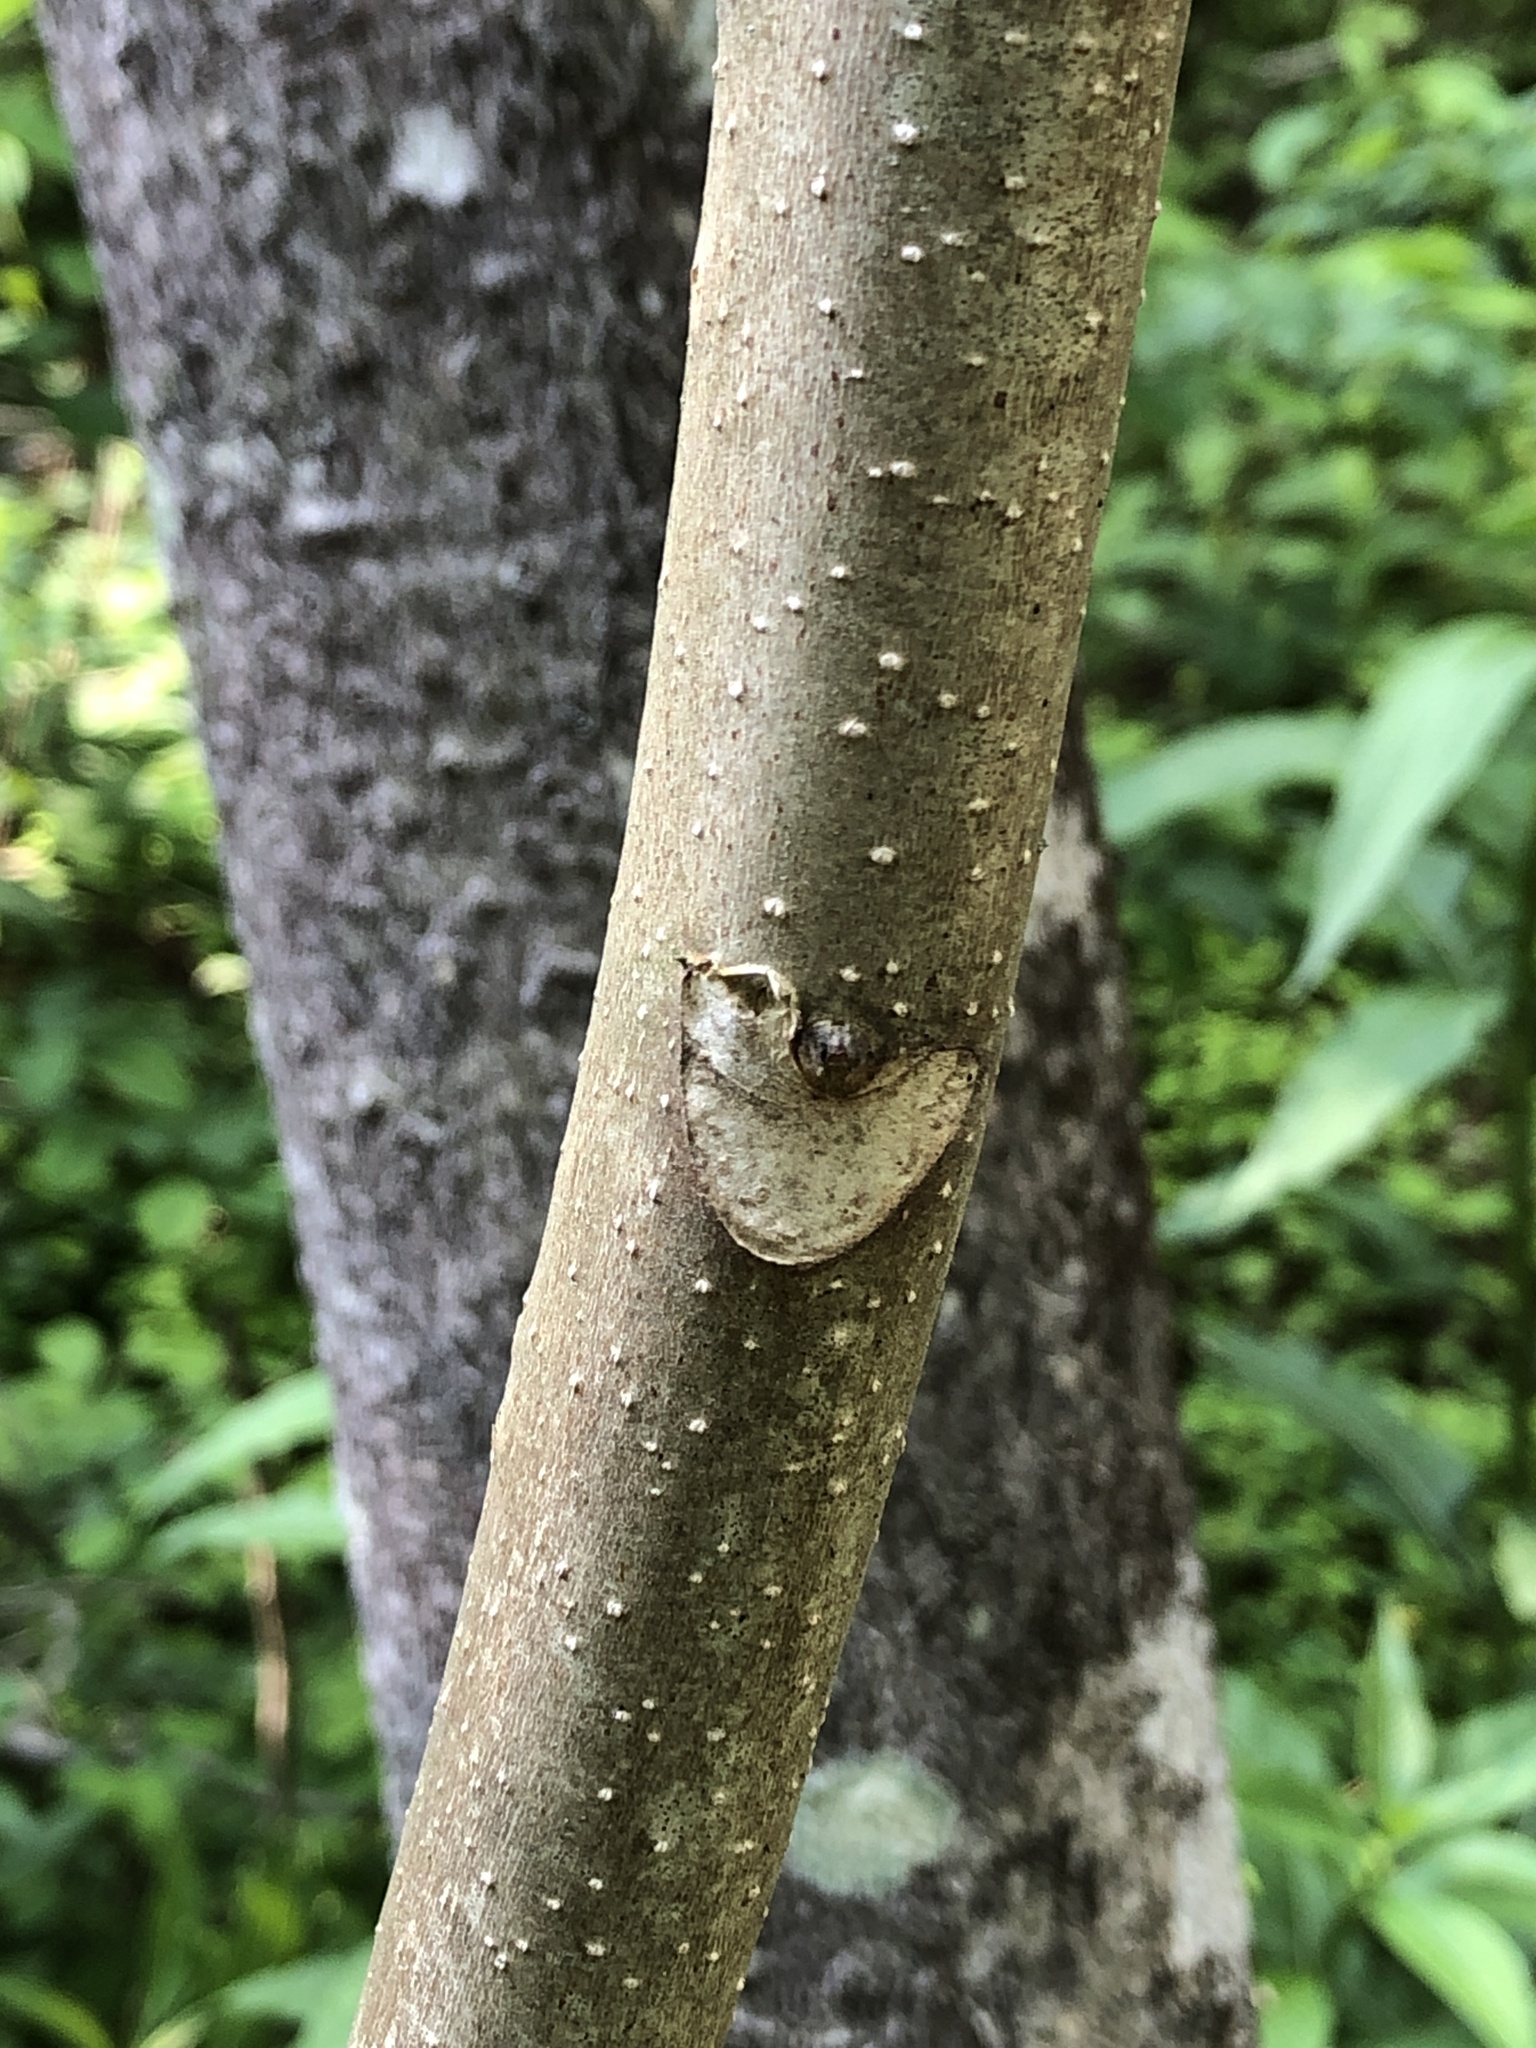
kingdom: Plantae
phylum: Tracheophyta
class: Magnoliopsida
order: Sapindales
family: Simaroubaceae
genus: Ailanthus
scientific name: Ailanthus altissima
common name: Tree-of-heaven
